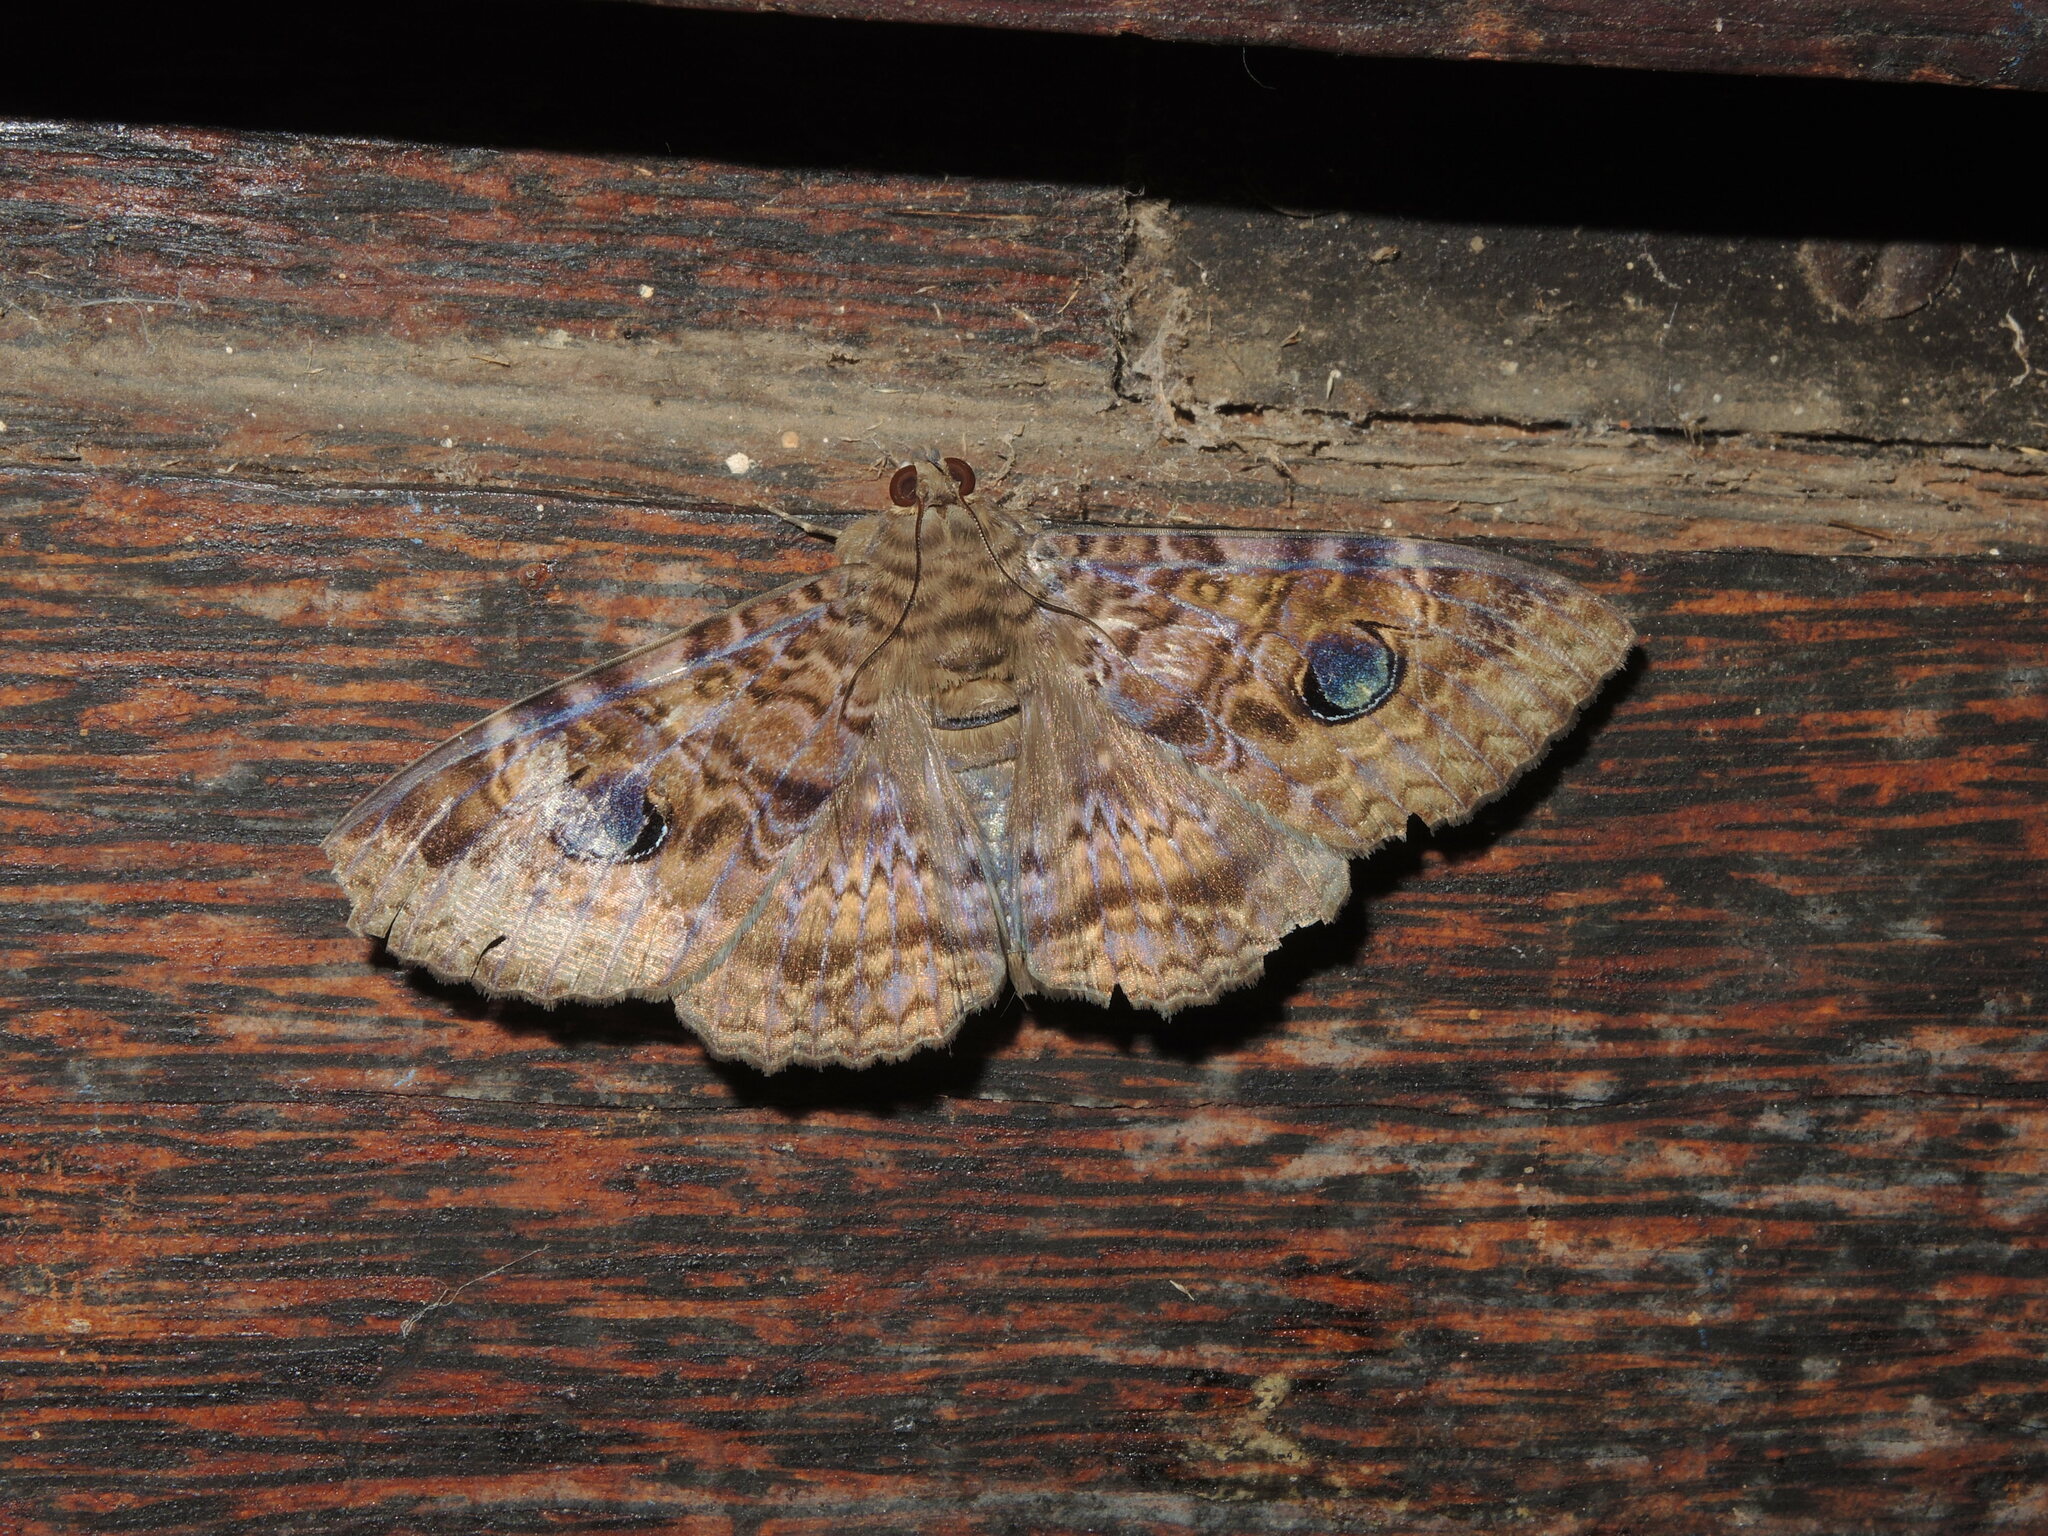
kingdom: Animalia
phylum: Arthropoda
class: Insecta
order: Lepidoptera
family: Erebidae
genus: Speiredonia
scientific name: Speiredonia obscura
